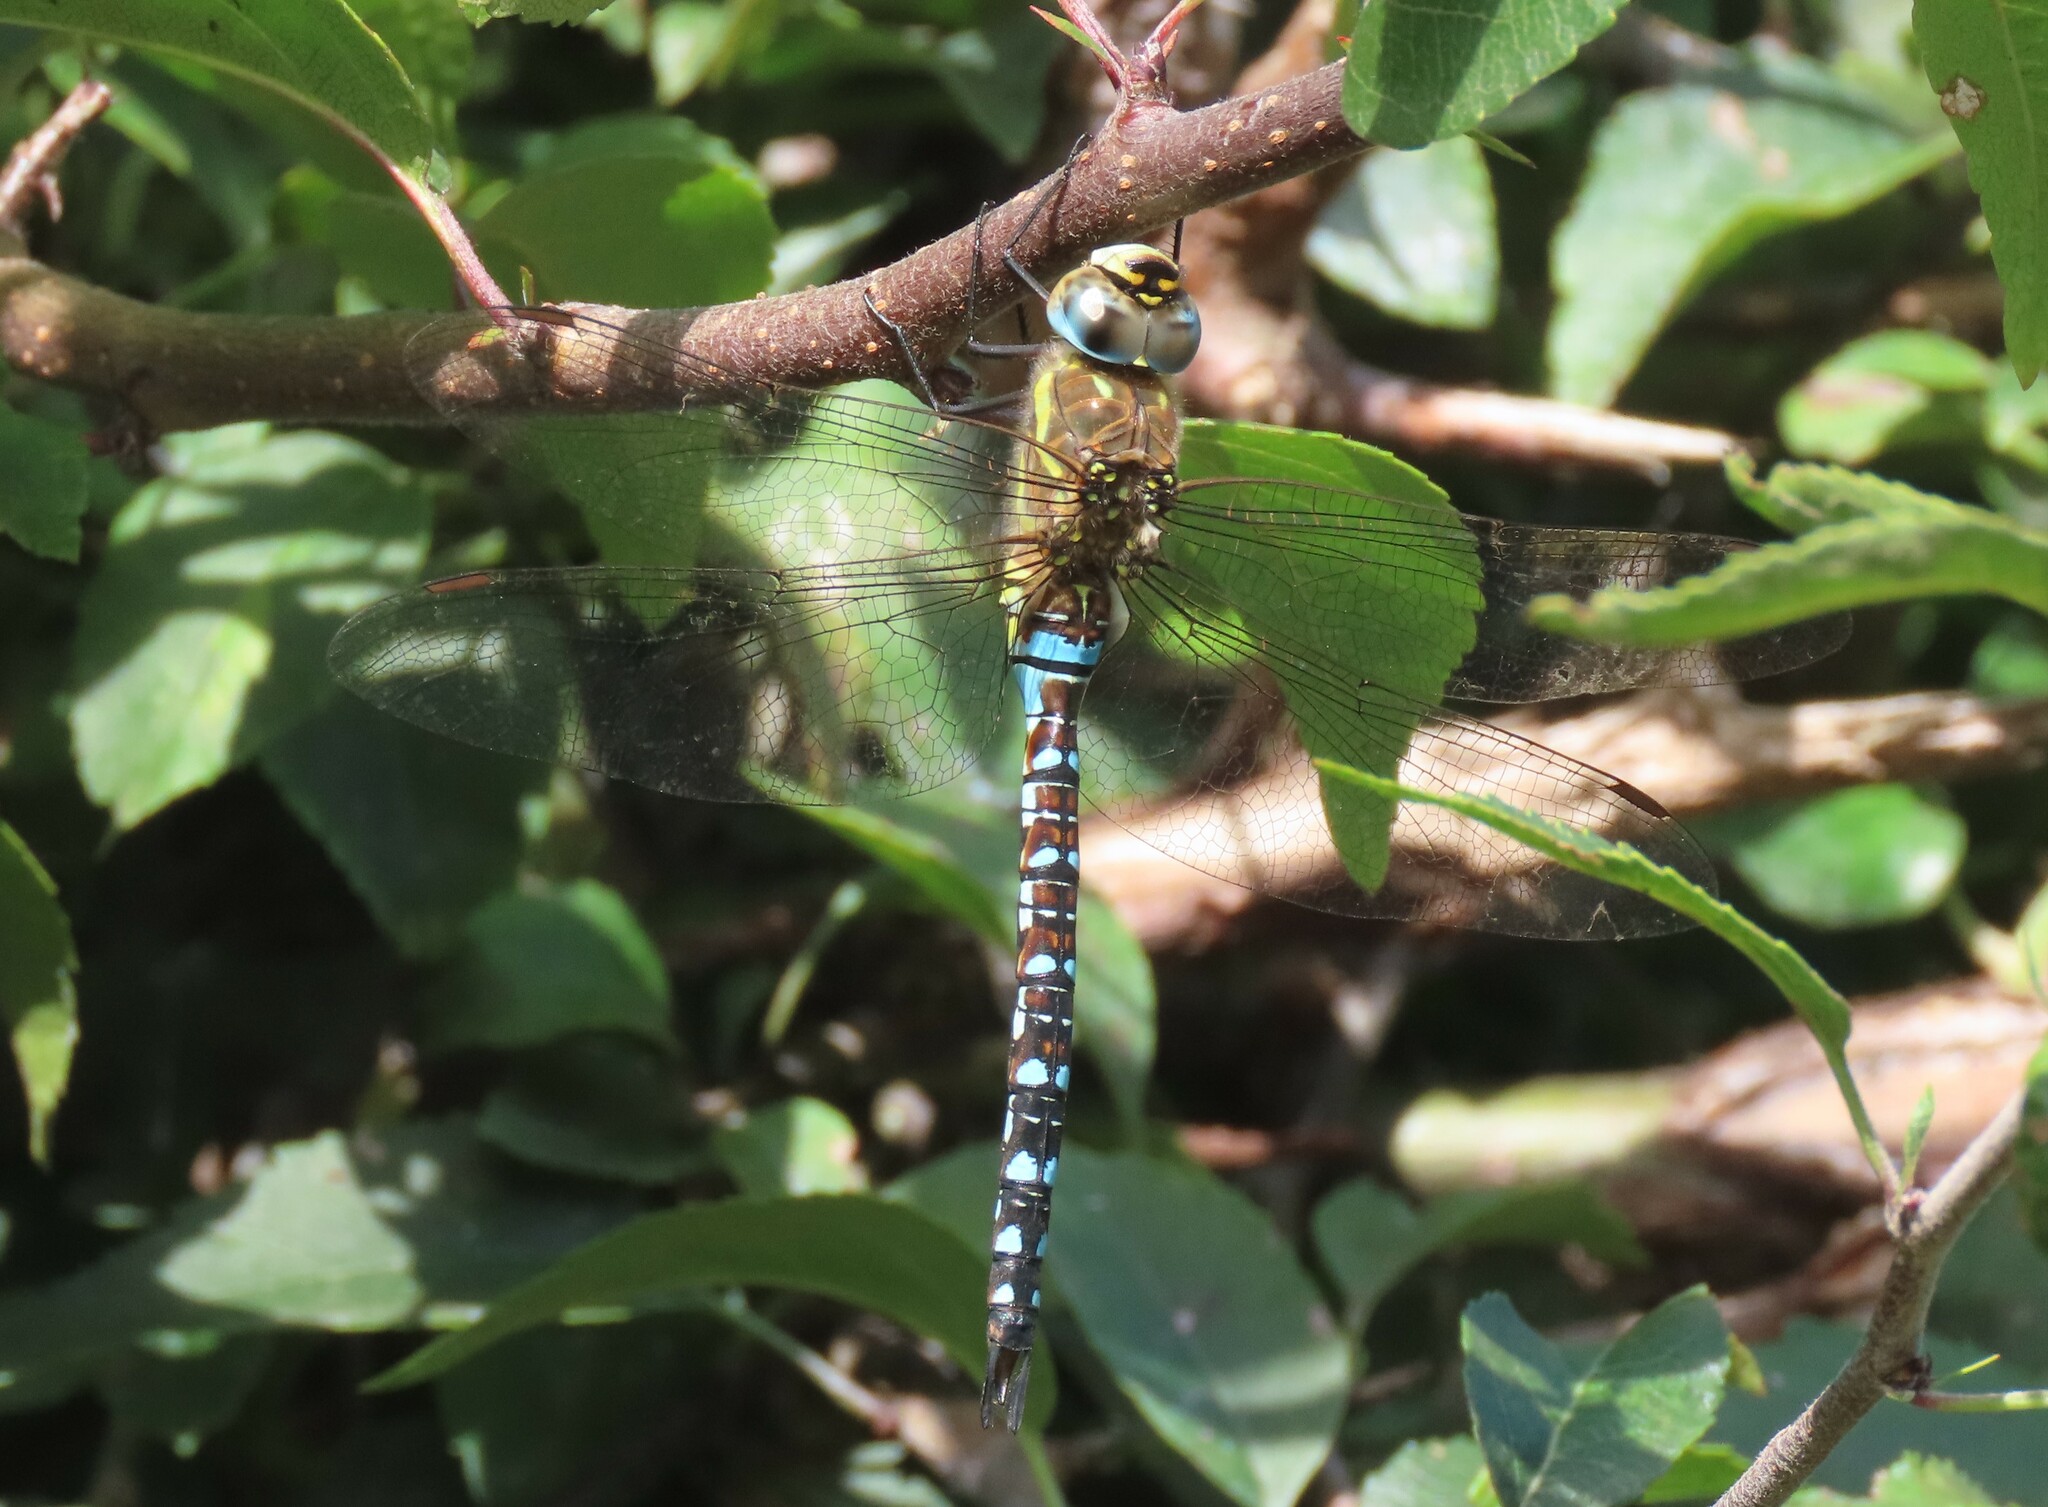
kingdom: Animalia
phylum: Arthropoda
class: Insecta
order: Odonata
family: Aeshnidae
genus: Aeshna
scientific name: Aeshna mixta
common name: Migrant hawker
